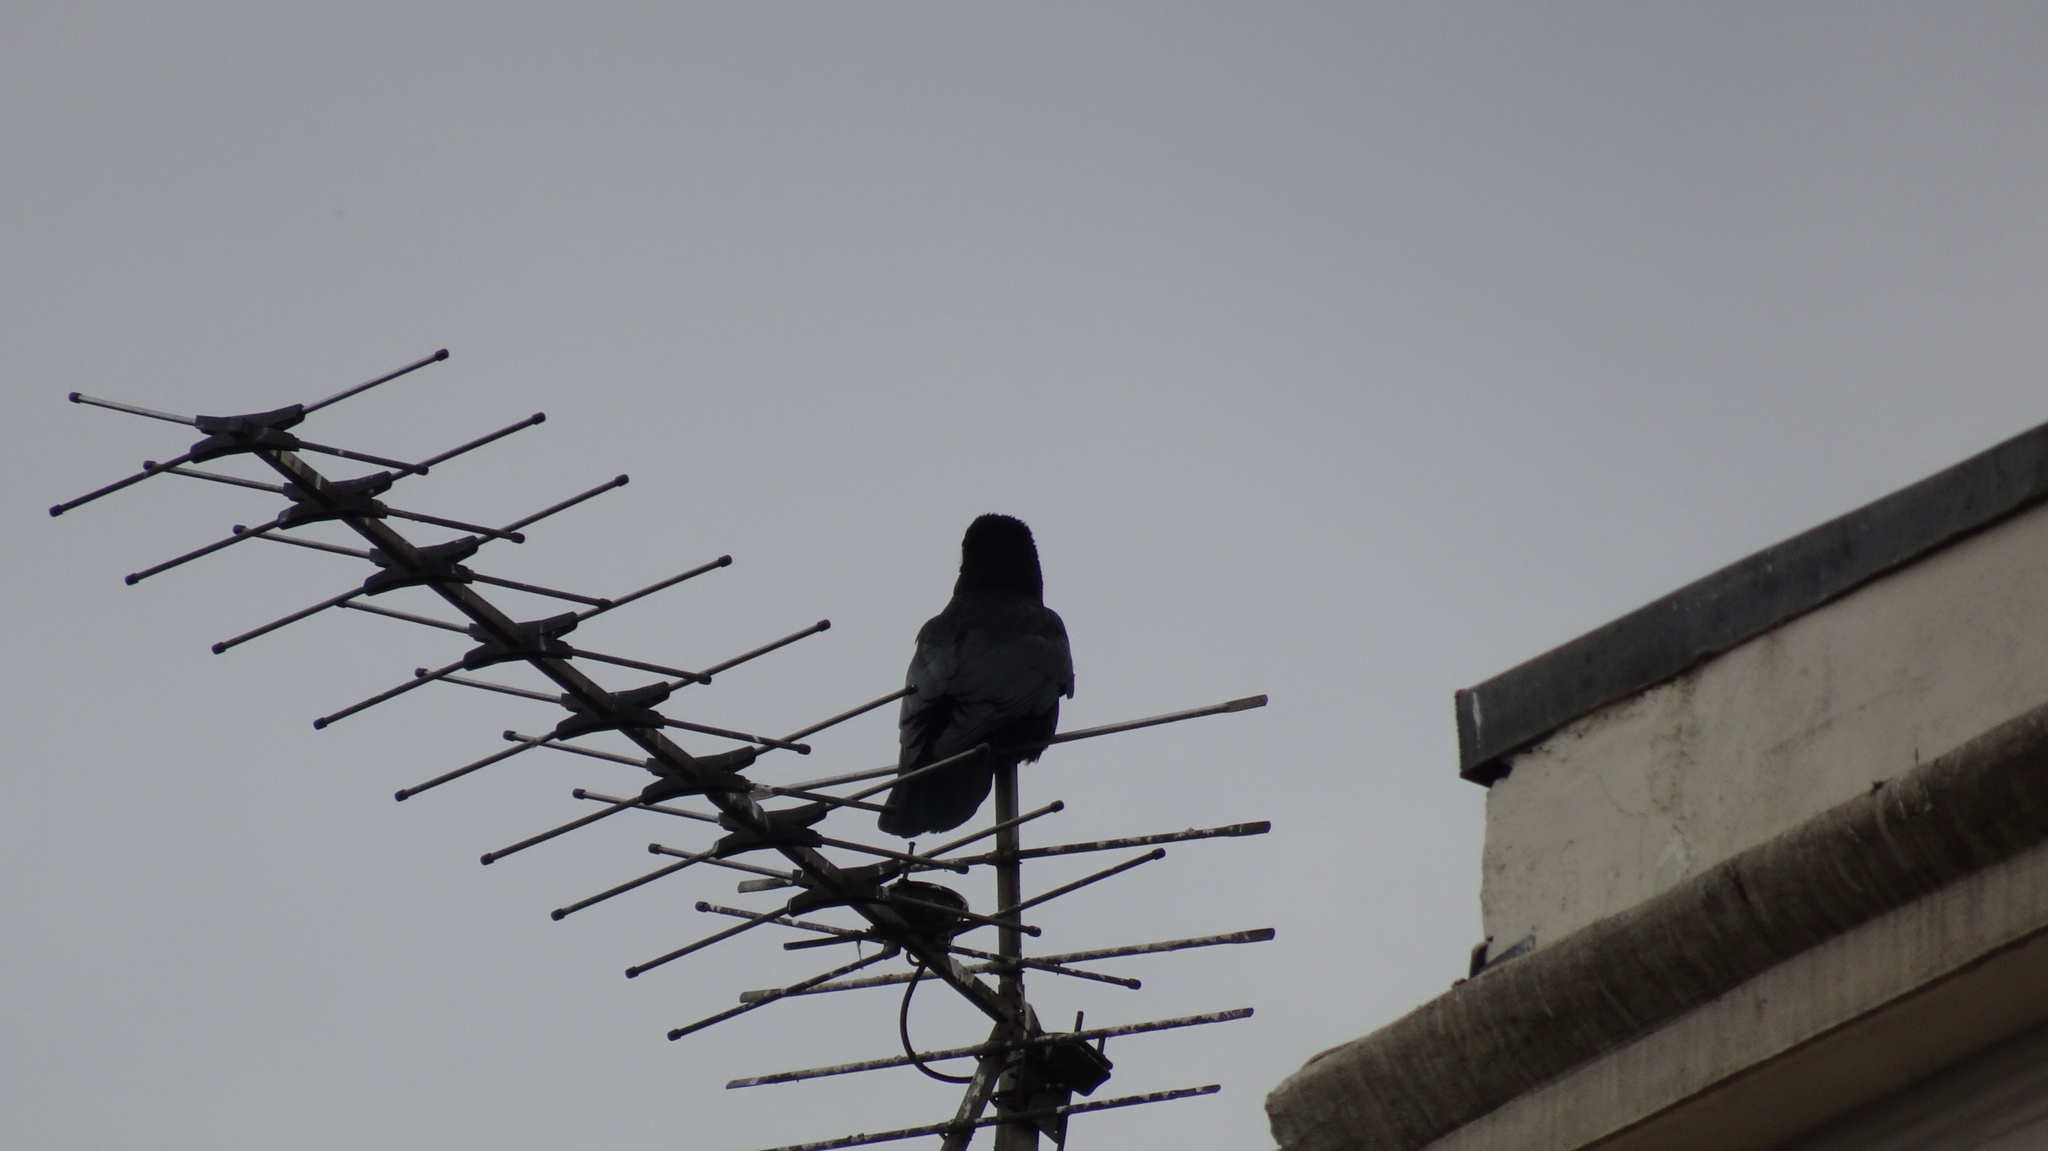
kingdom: Animalia
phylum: Chordata
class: Aves
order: Passeriformes
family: Corvidae
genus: Corvus
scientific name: Corvus corone
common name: Carrion crow
